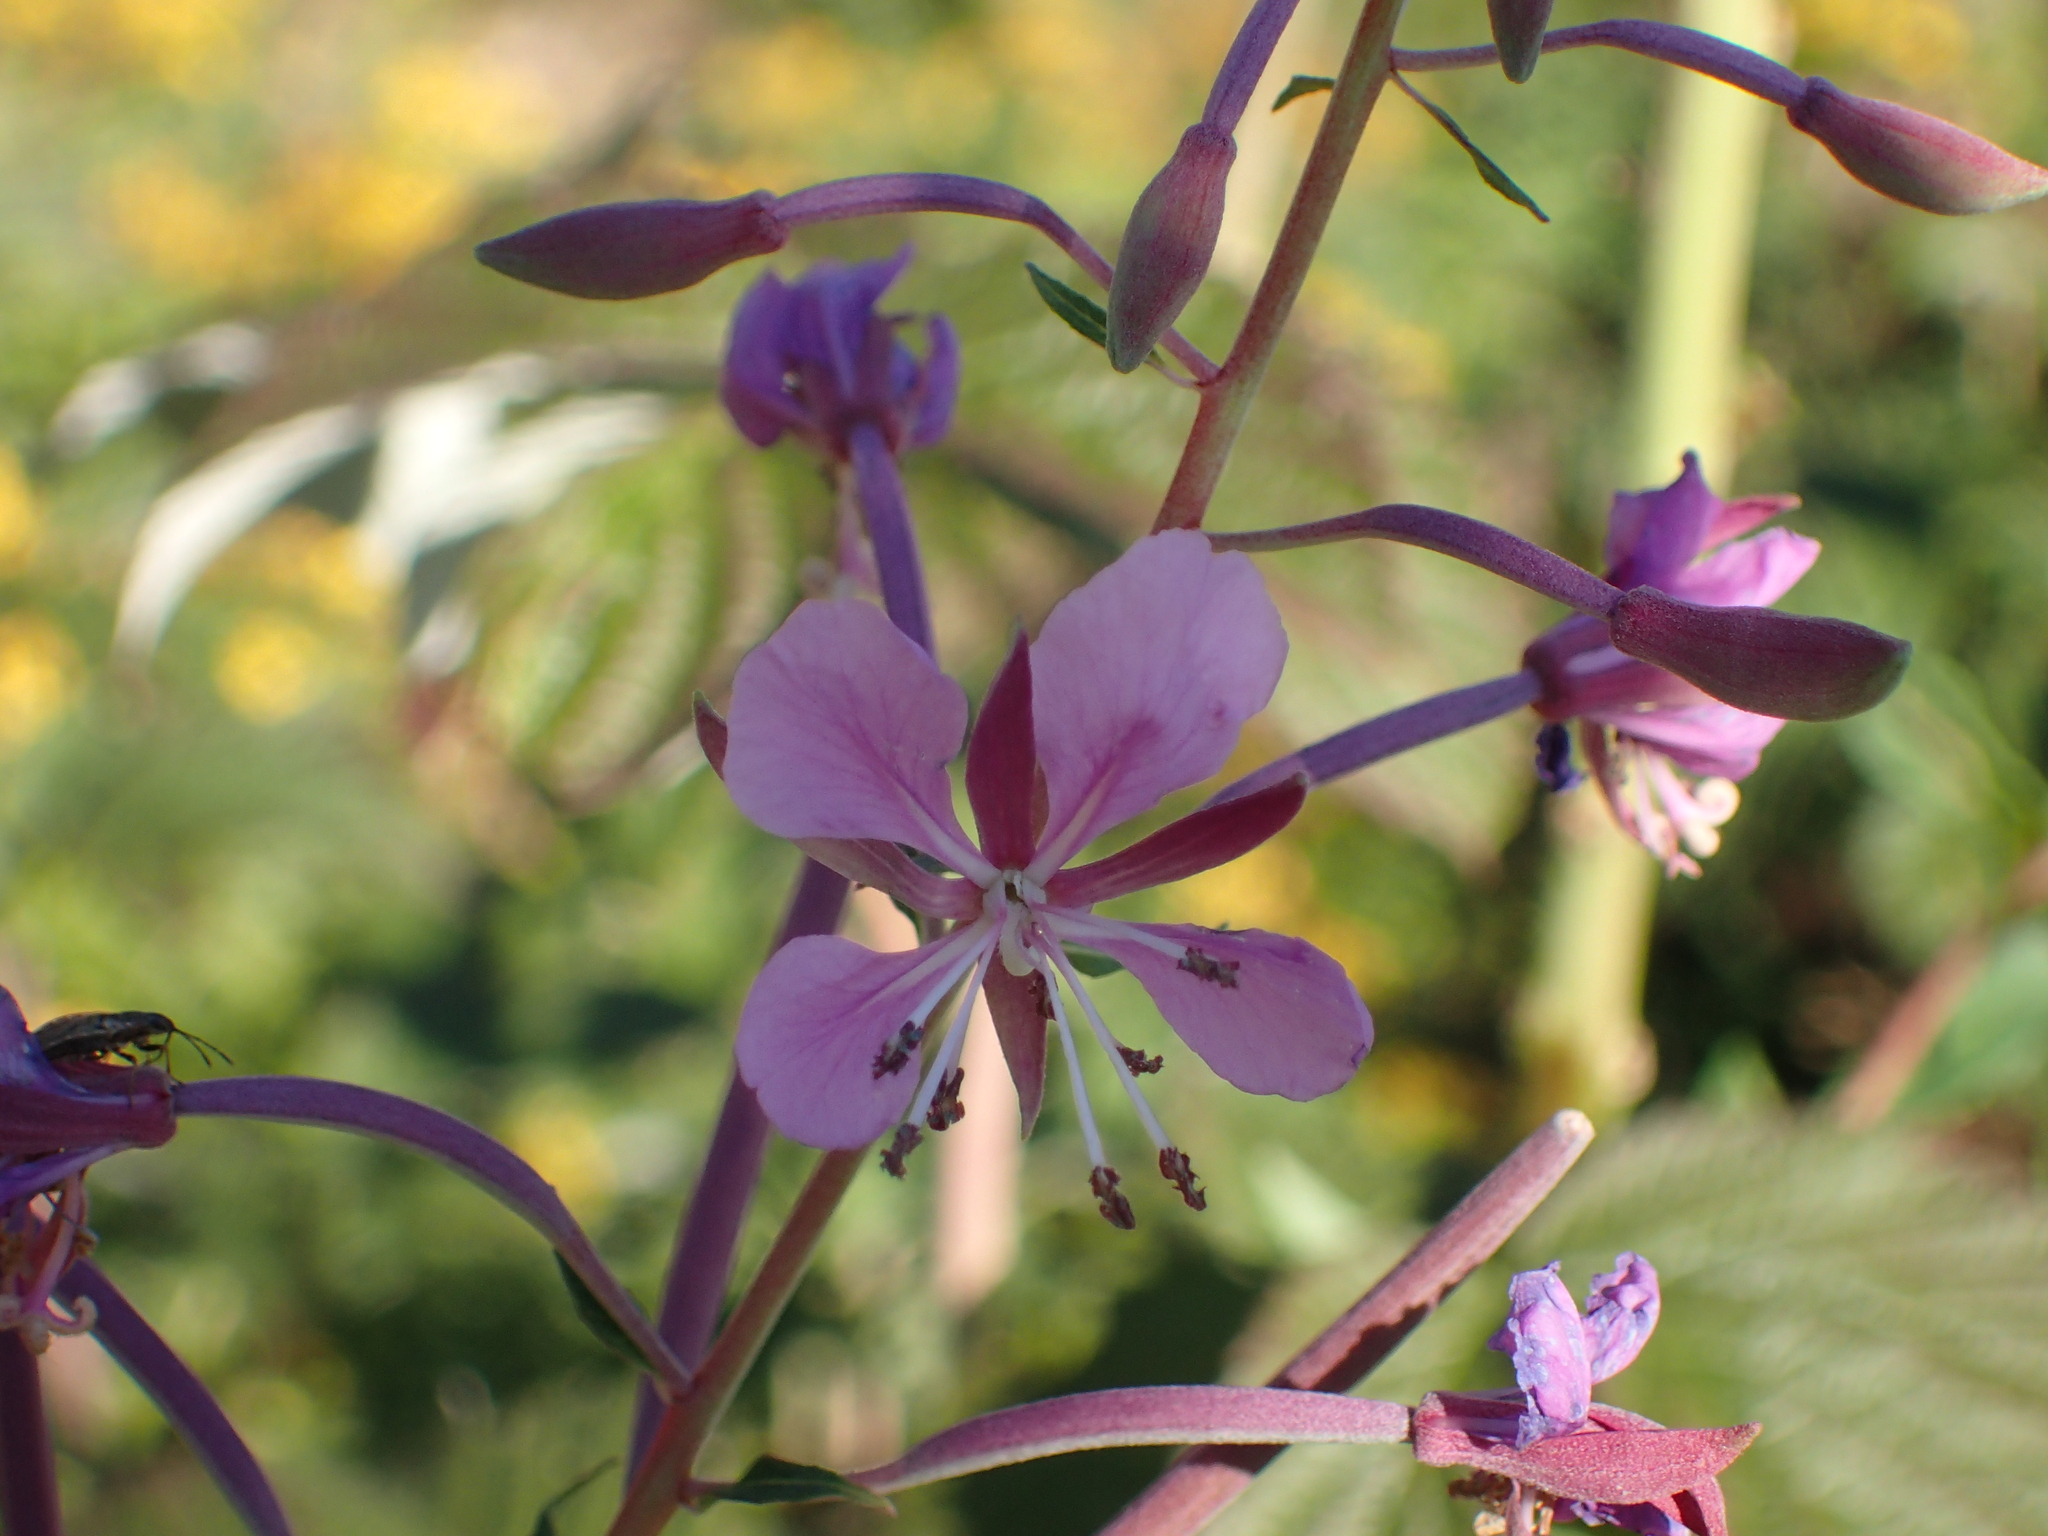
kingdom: Plantae
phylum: Tracheophyta
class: Magnoliopsida
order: Myrtales
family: Onagraceae
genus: Chamaenerion
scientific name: Chamaenerion angustifolium
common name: Fireweed
